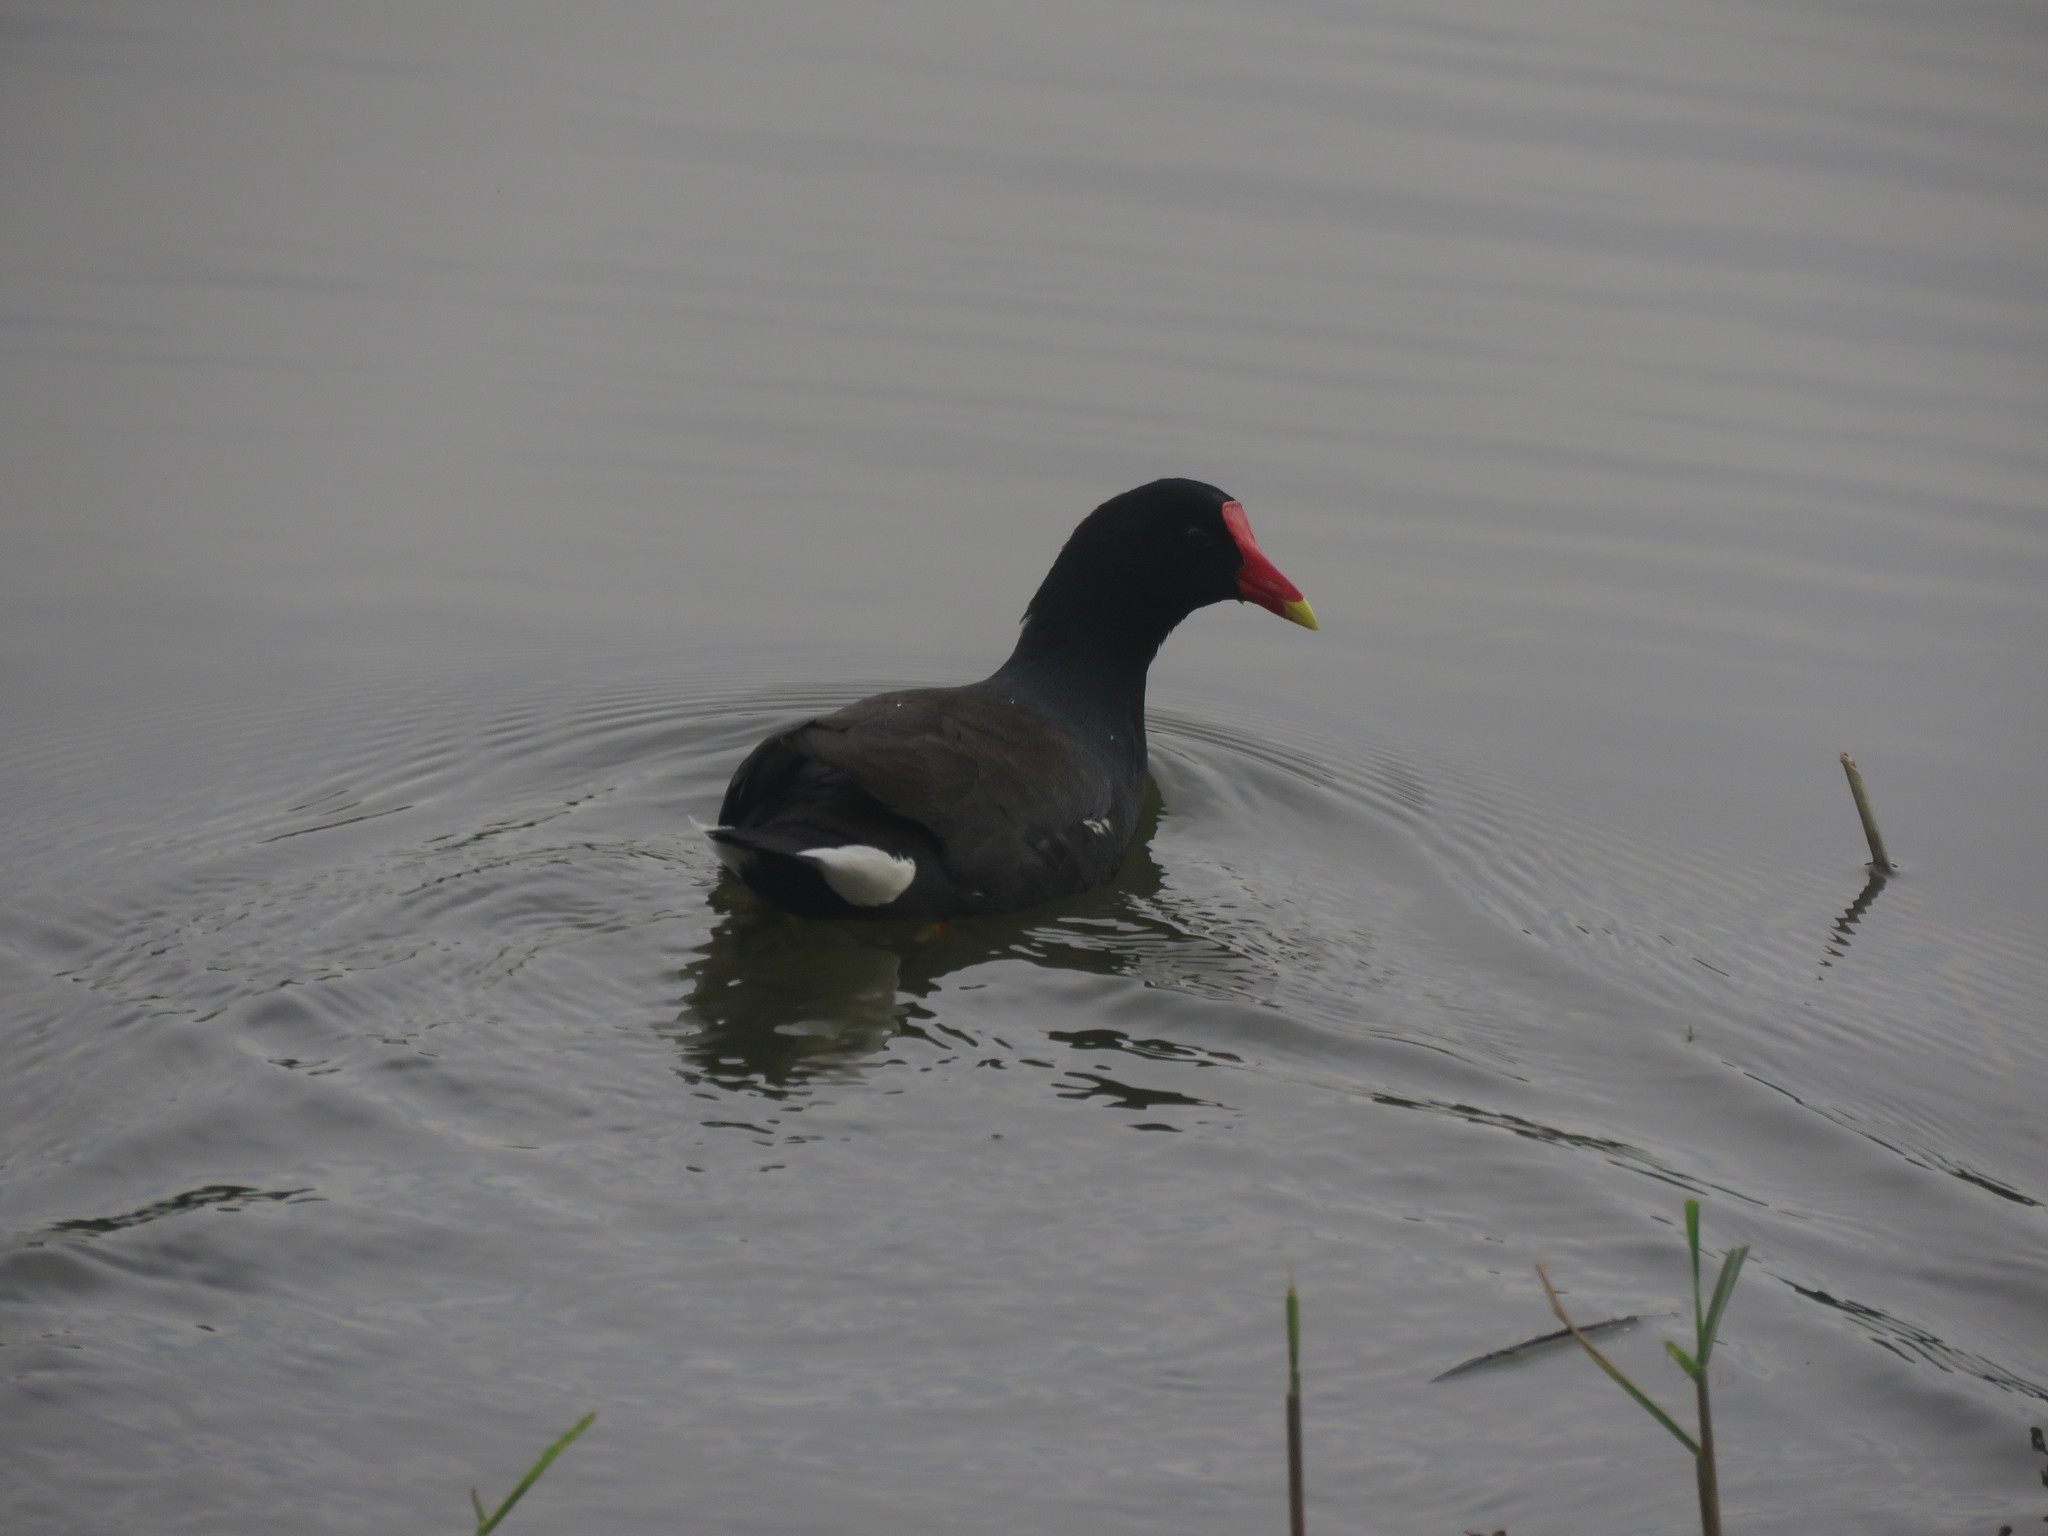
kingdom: Animalia
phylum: Chordata
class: Aves
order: Gruiformes
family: Rallidae
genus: Gallinula
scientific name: Gallinula chloropus
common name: Common moorhen
